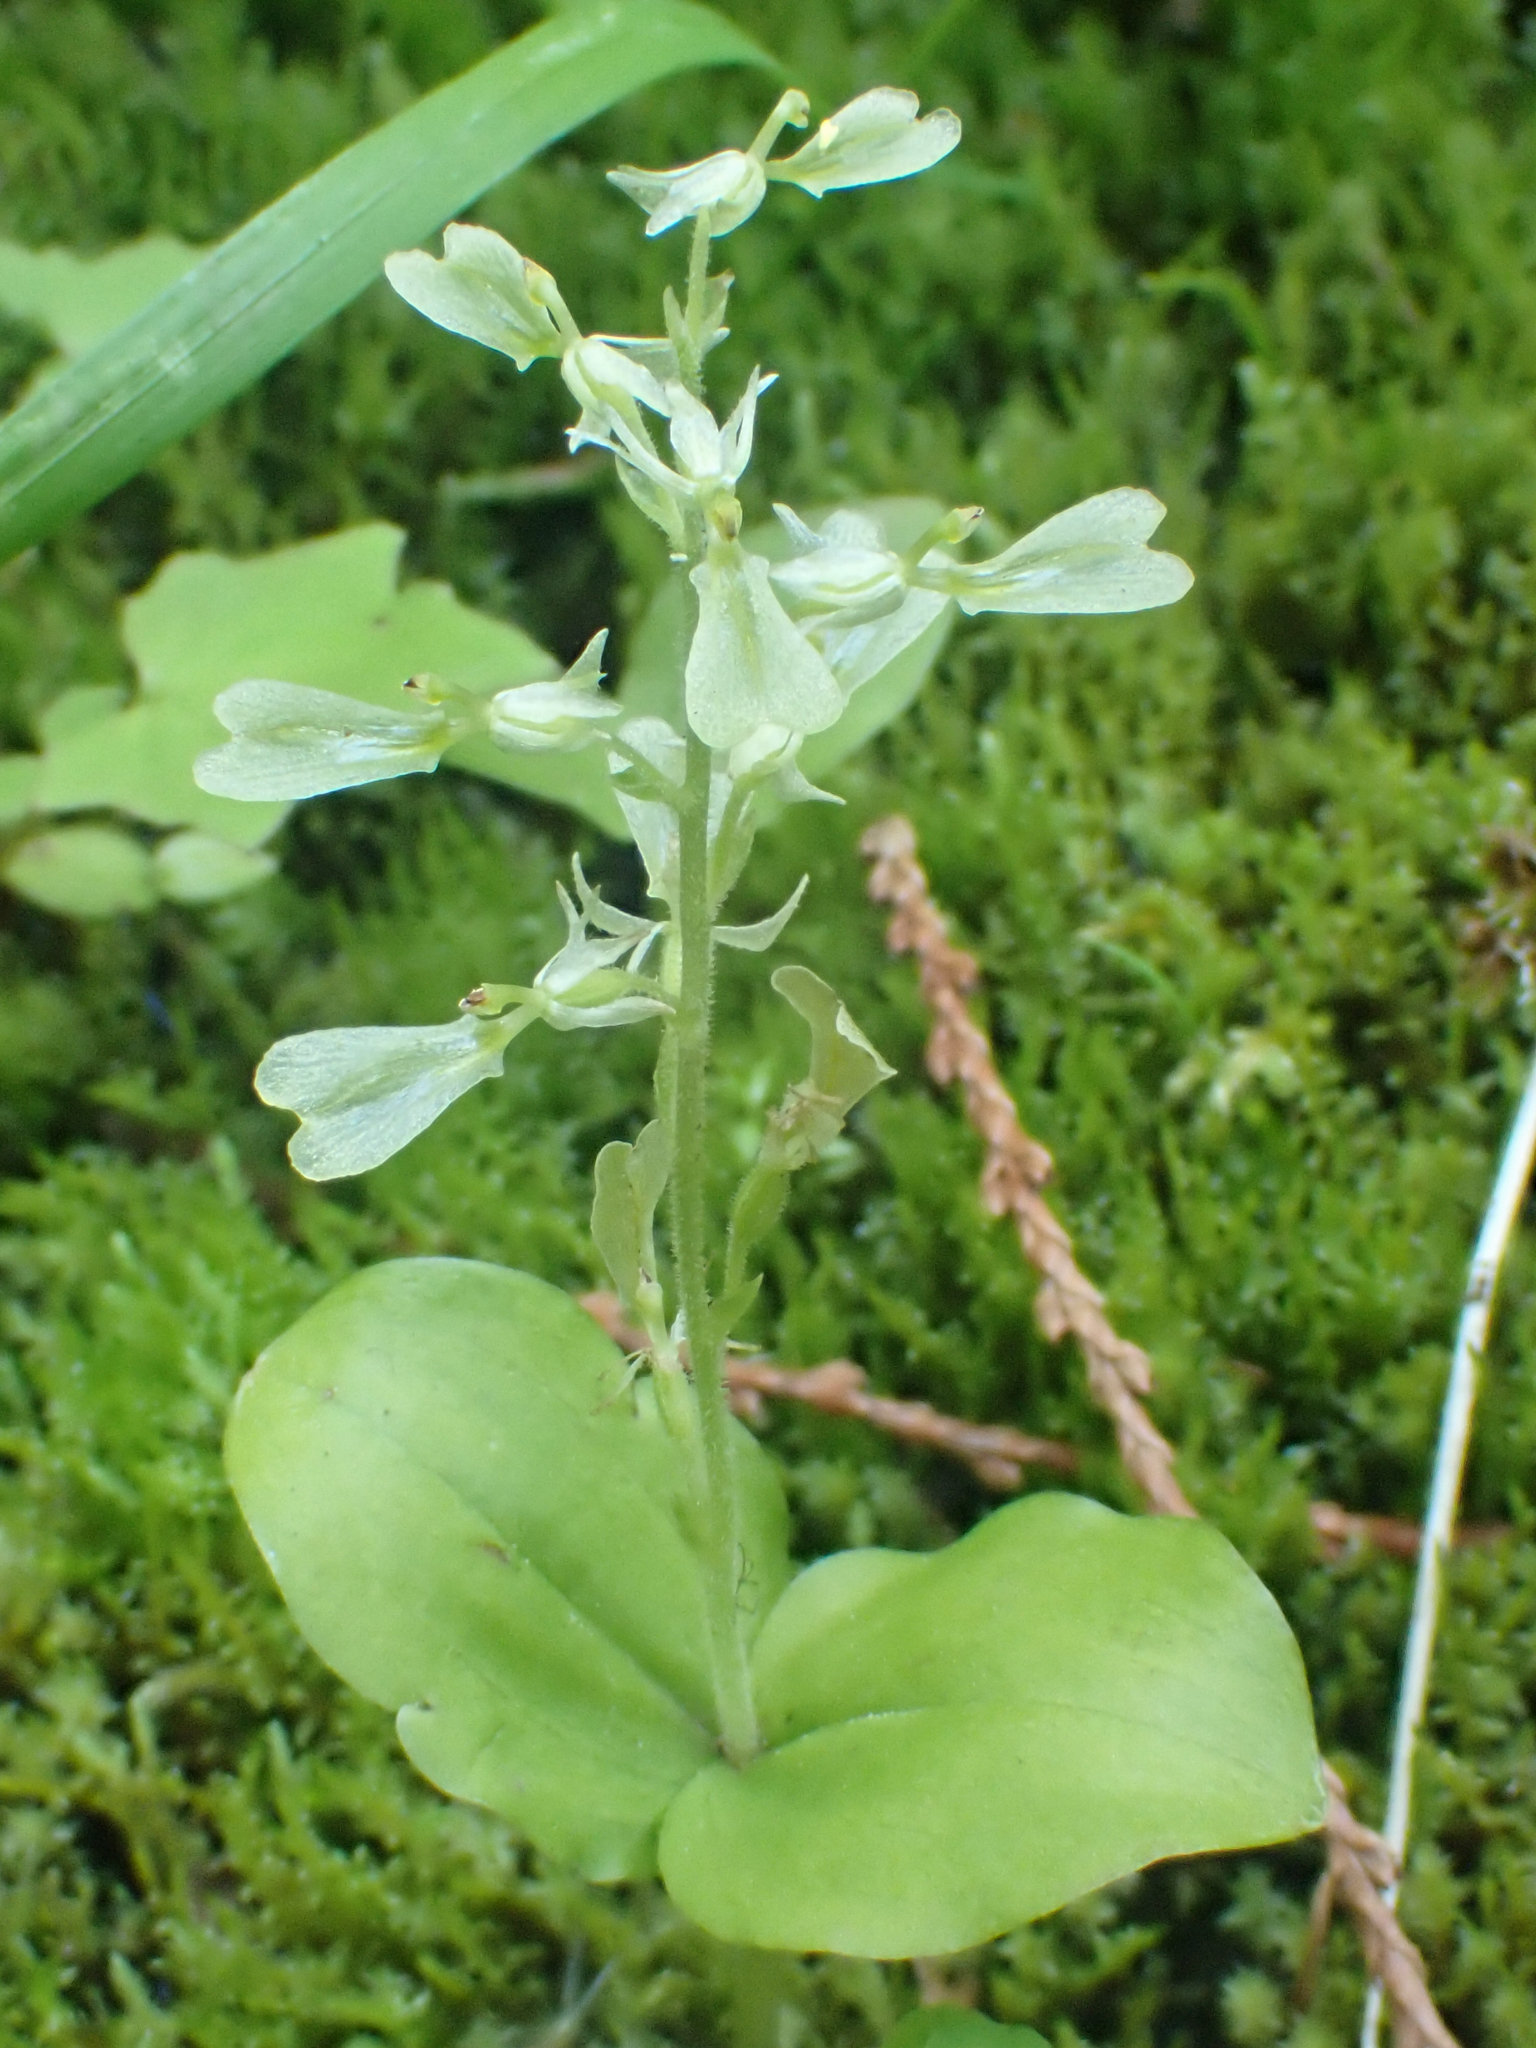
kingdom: Plantae
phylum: Tracheophyta
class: Liliopsida
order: Asparagales
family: Orchidaceae
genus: Neottia
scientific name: Neottia convallarioides
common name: Broadleaf twayblade
